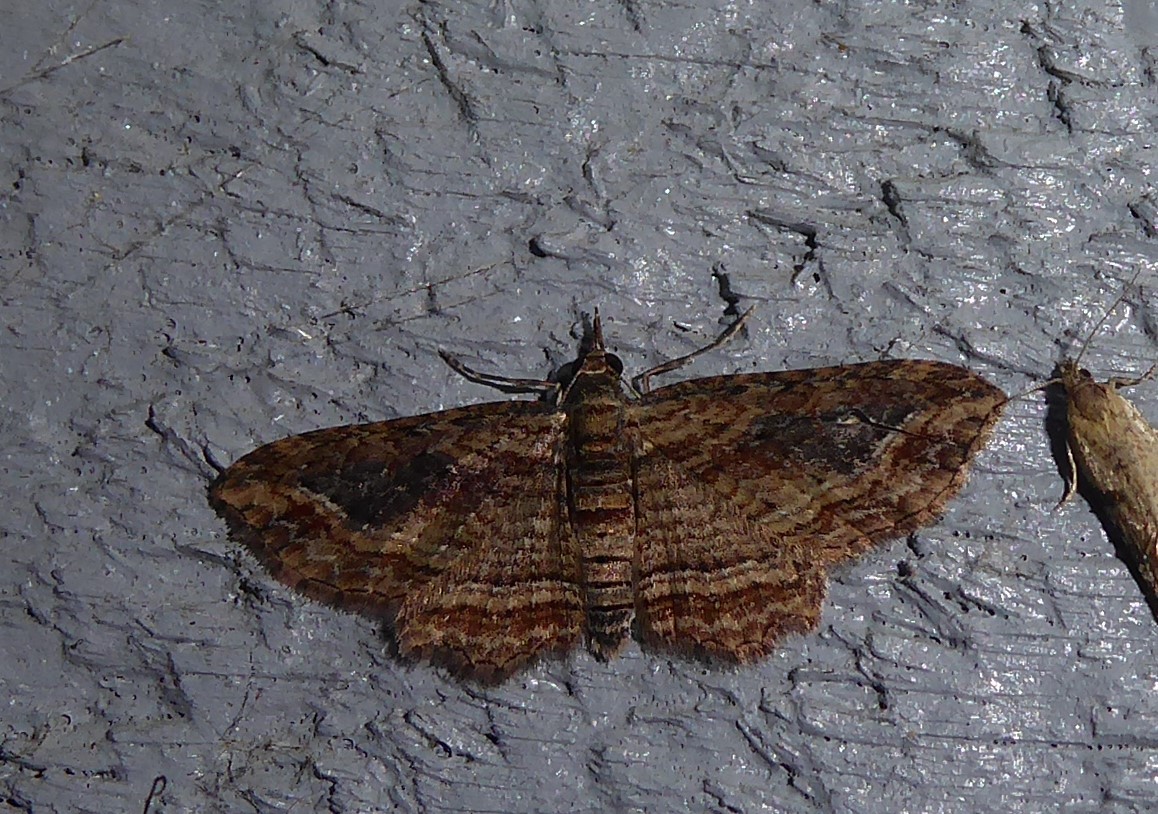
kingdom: Animalia
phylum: Arthropoda
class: Insecta
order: Lepidoptera
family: Geometridae
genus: Chloroclystis
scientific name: Chloroclystis filata
